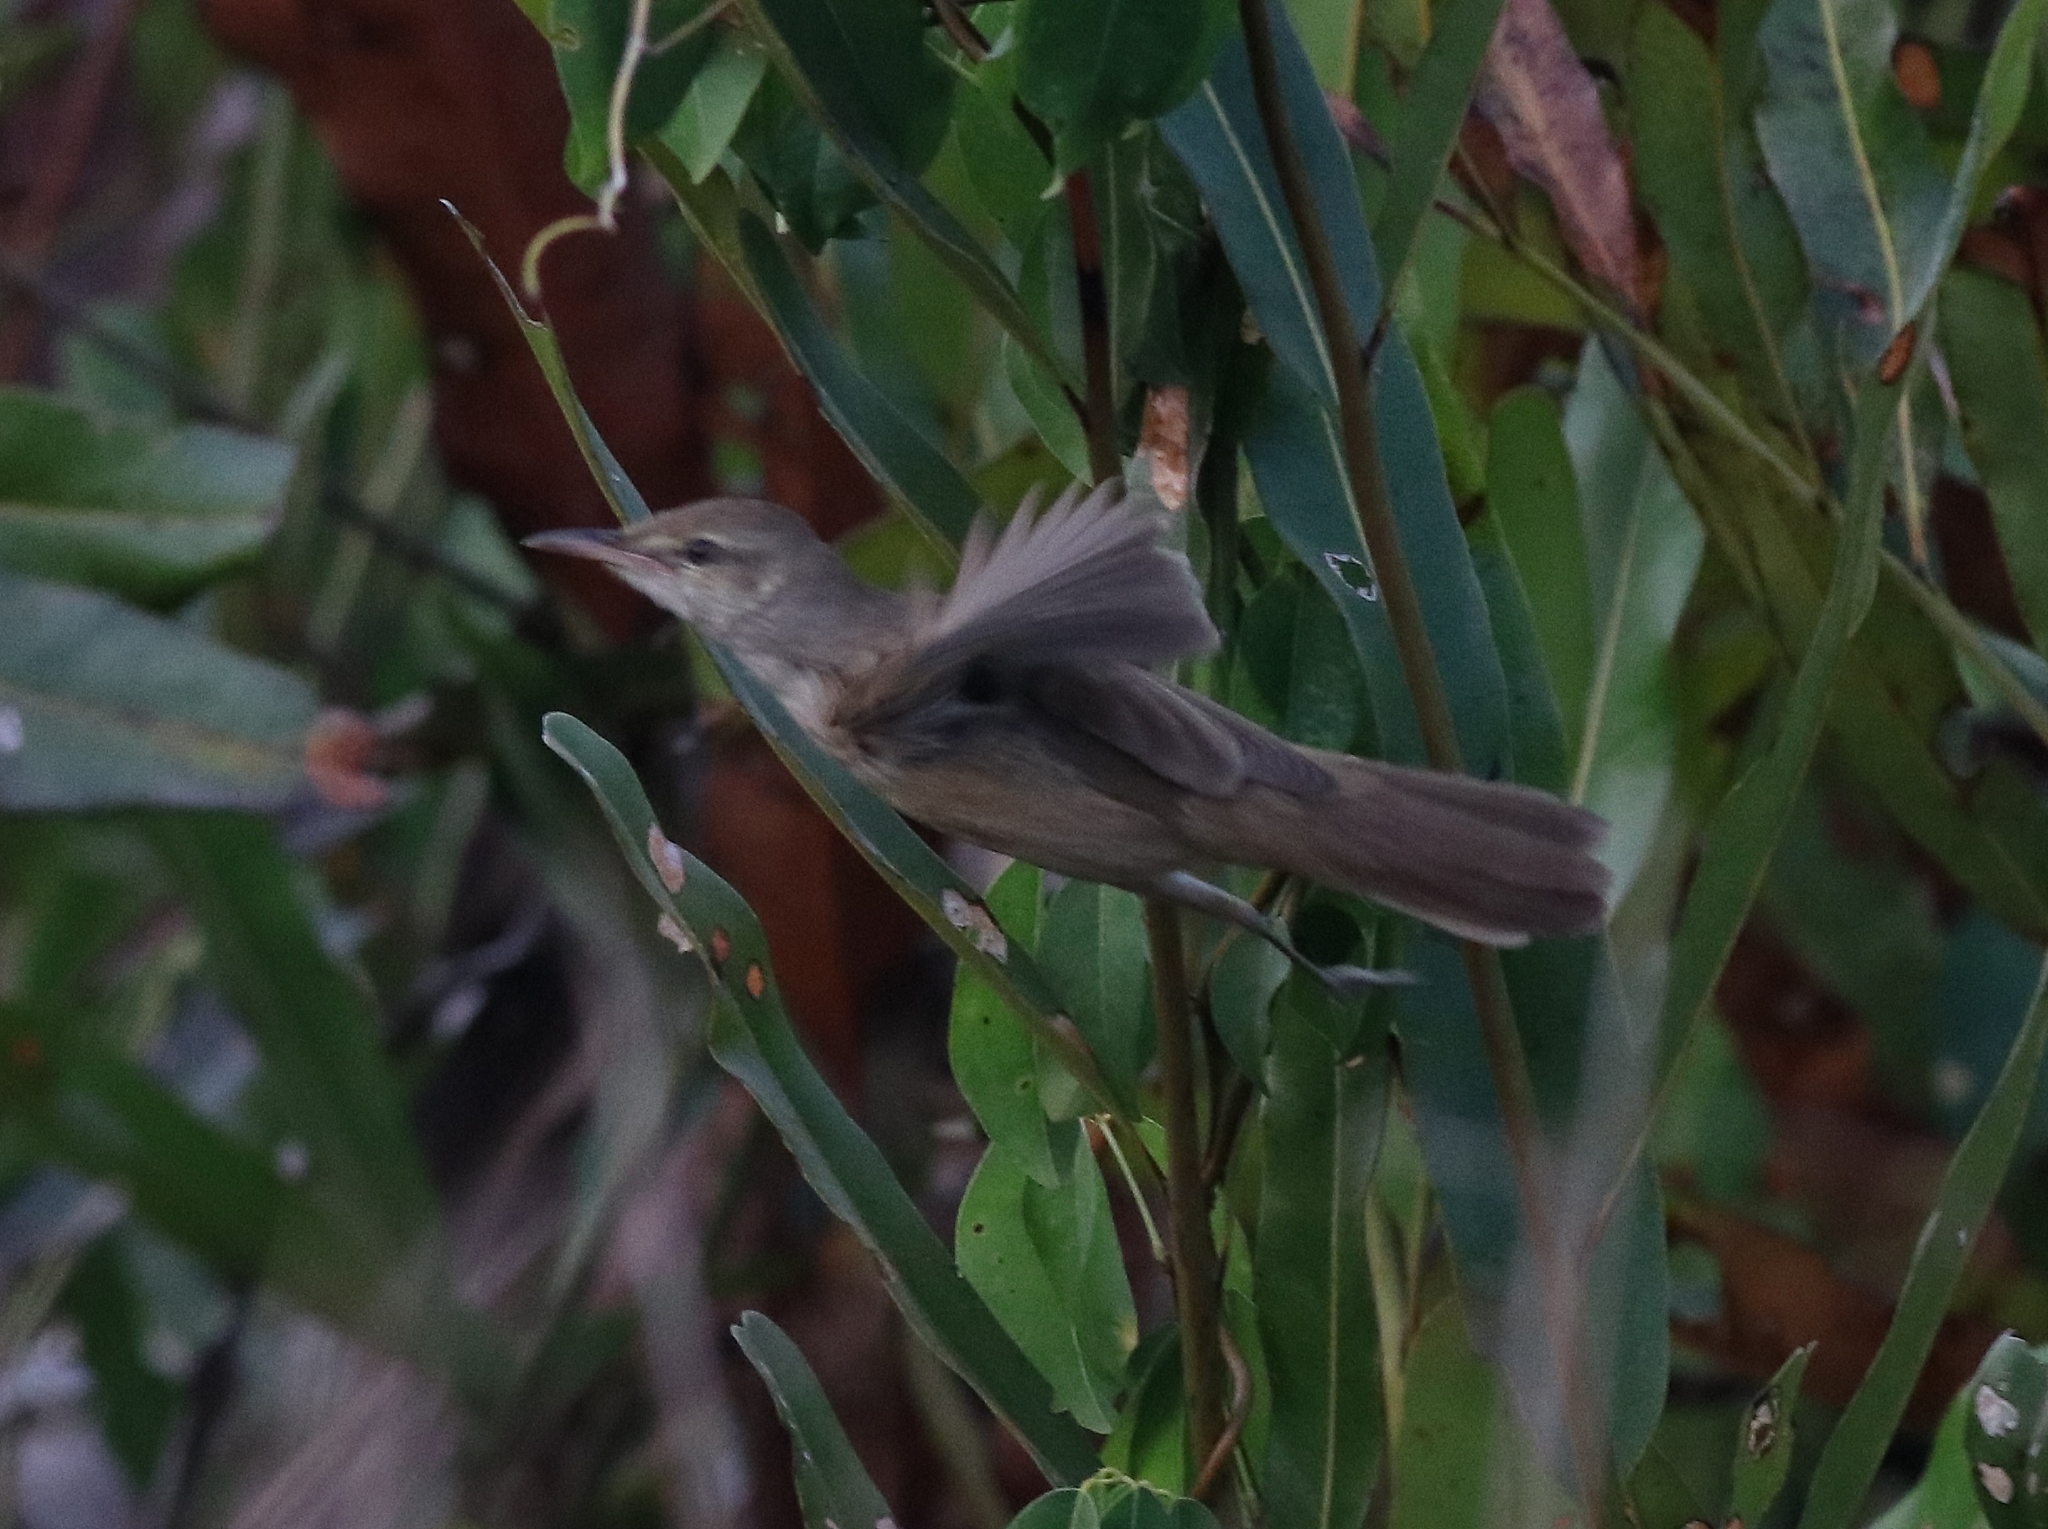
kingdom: Animalia
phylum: Chordata
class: Aves
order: Passeriformes
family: Acrocephalidae
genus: Acrocephalus
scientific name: Acrocephalus stentoreus
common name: Clamorous reed warbler
